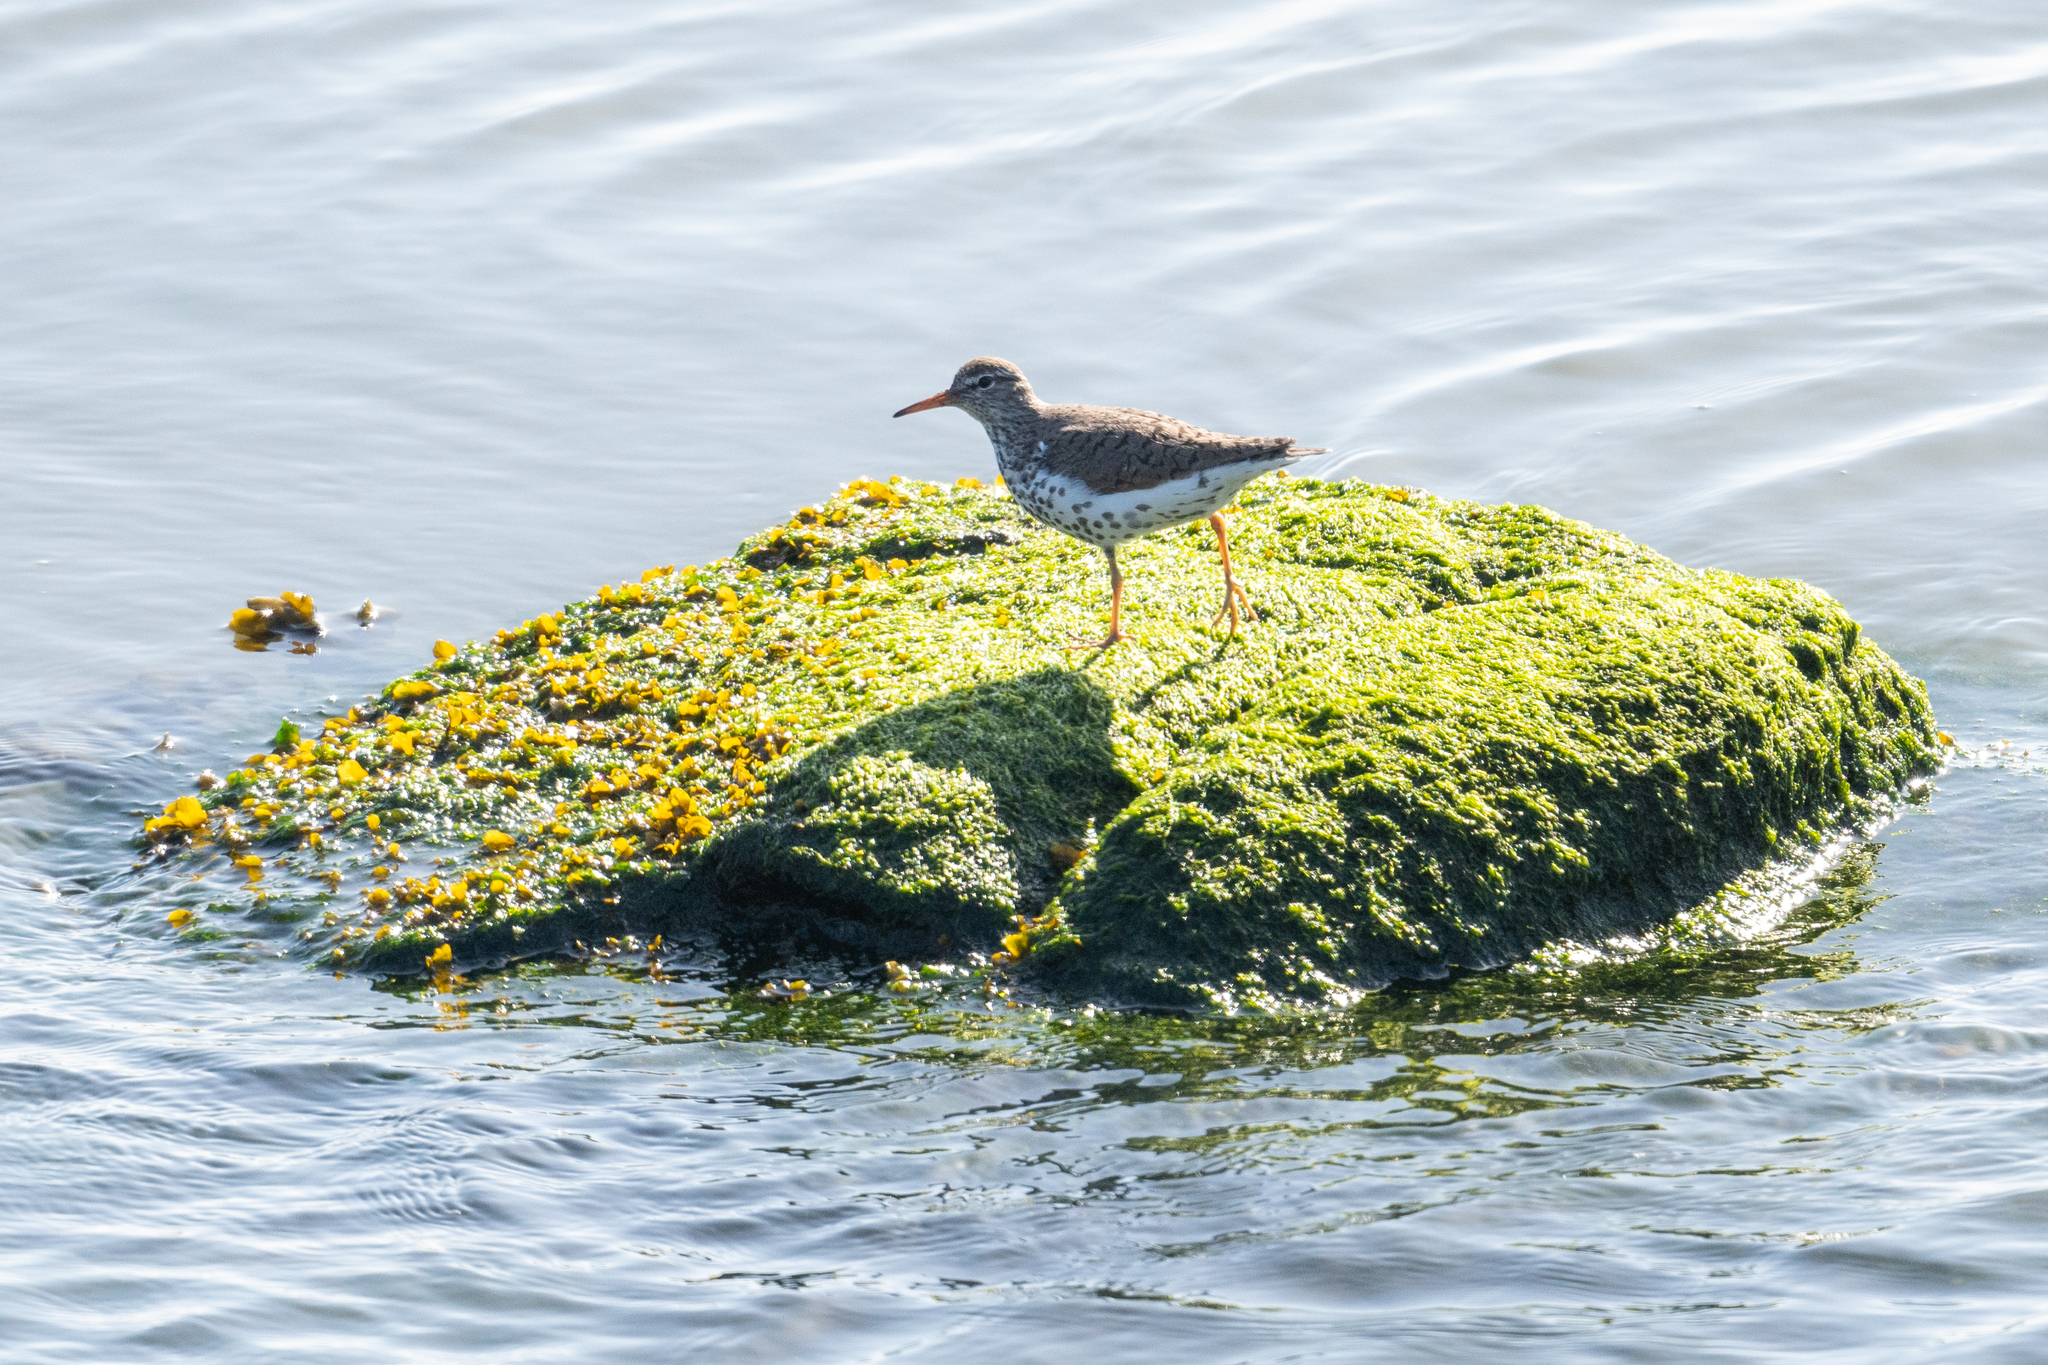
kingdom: Animalia
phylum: Chordata
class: Aves
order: Charadriiformes
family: Scolopacidae
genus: Actitis
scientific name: Actitis macularius
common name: Spotted sandpiper
